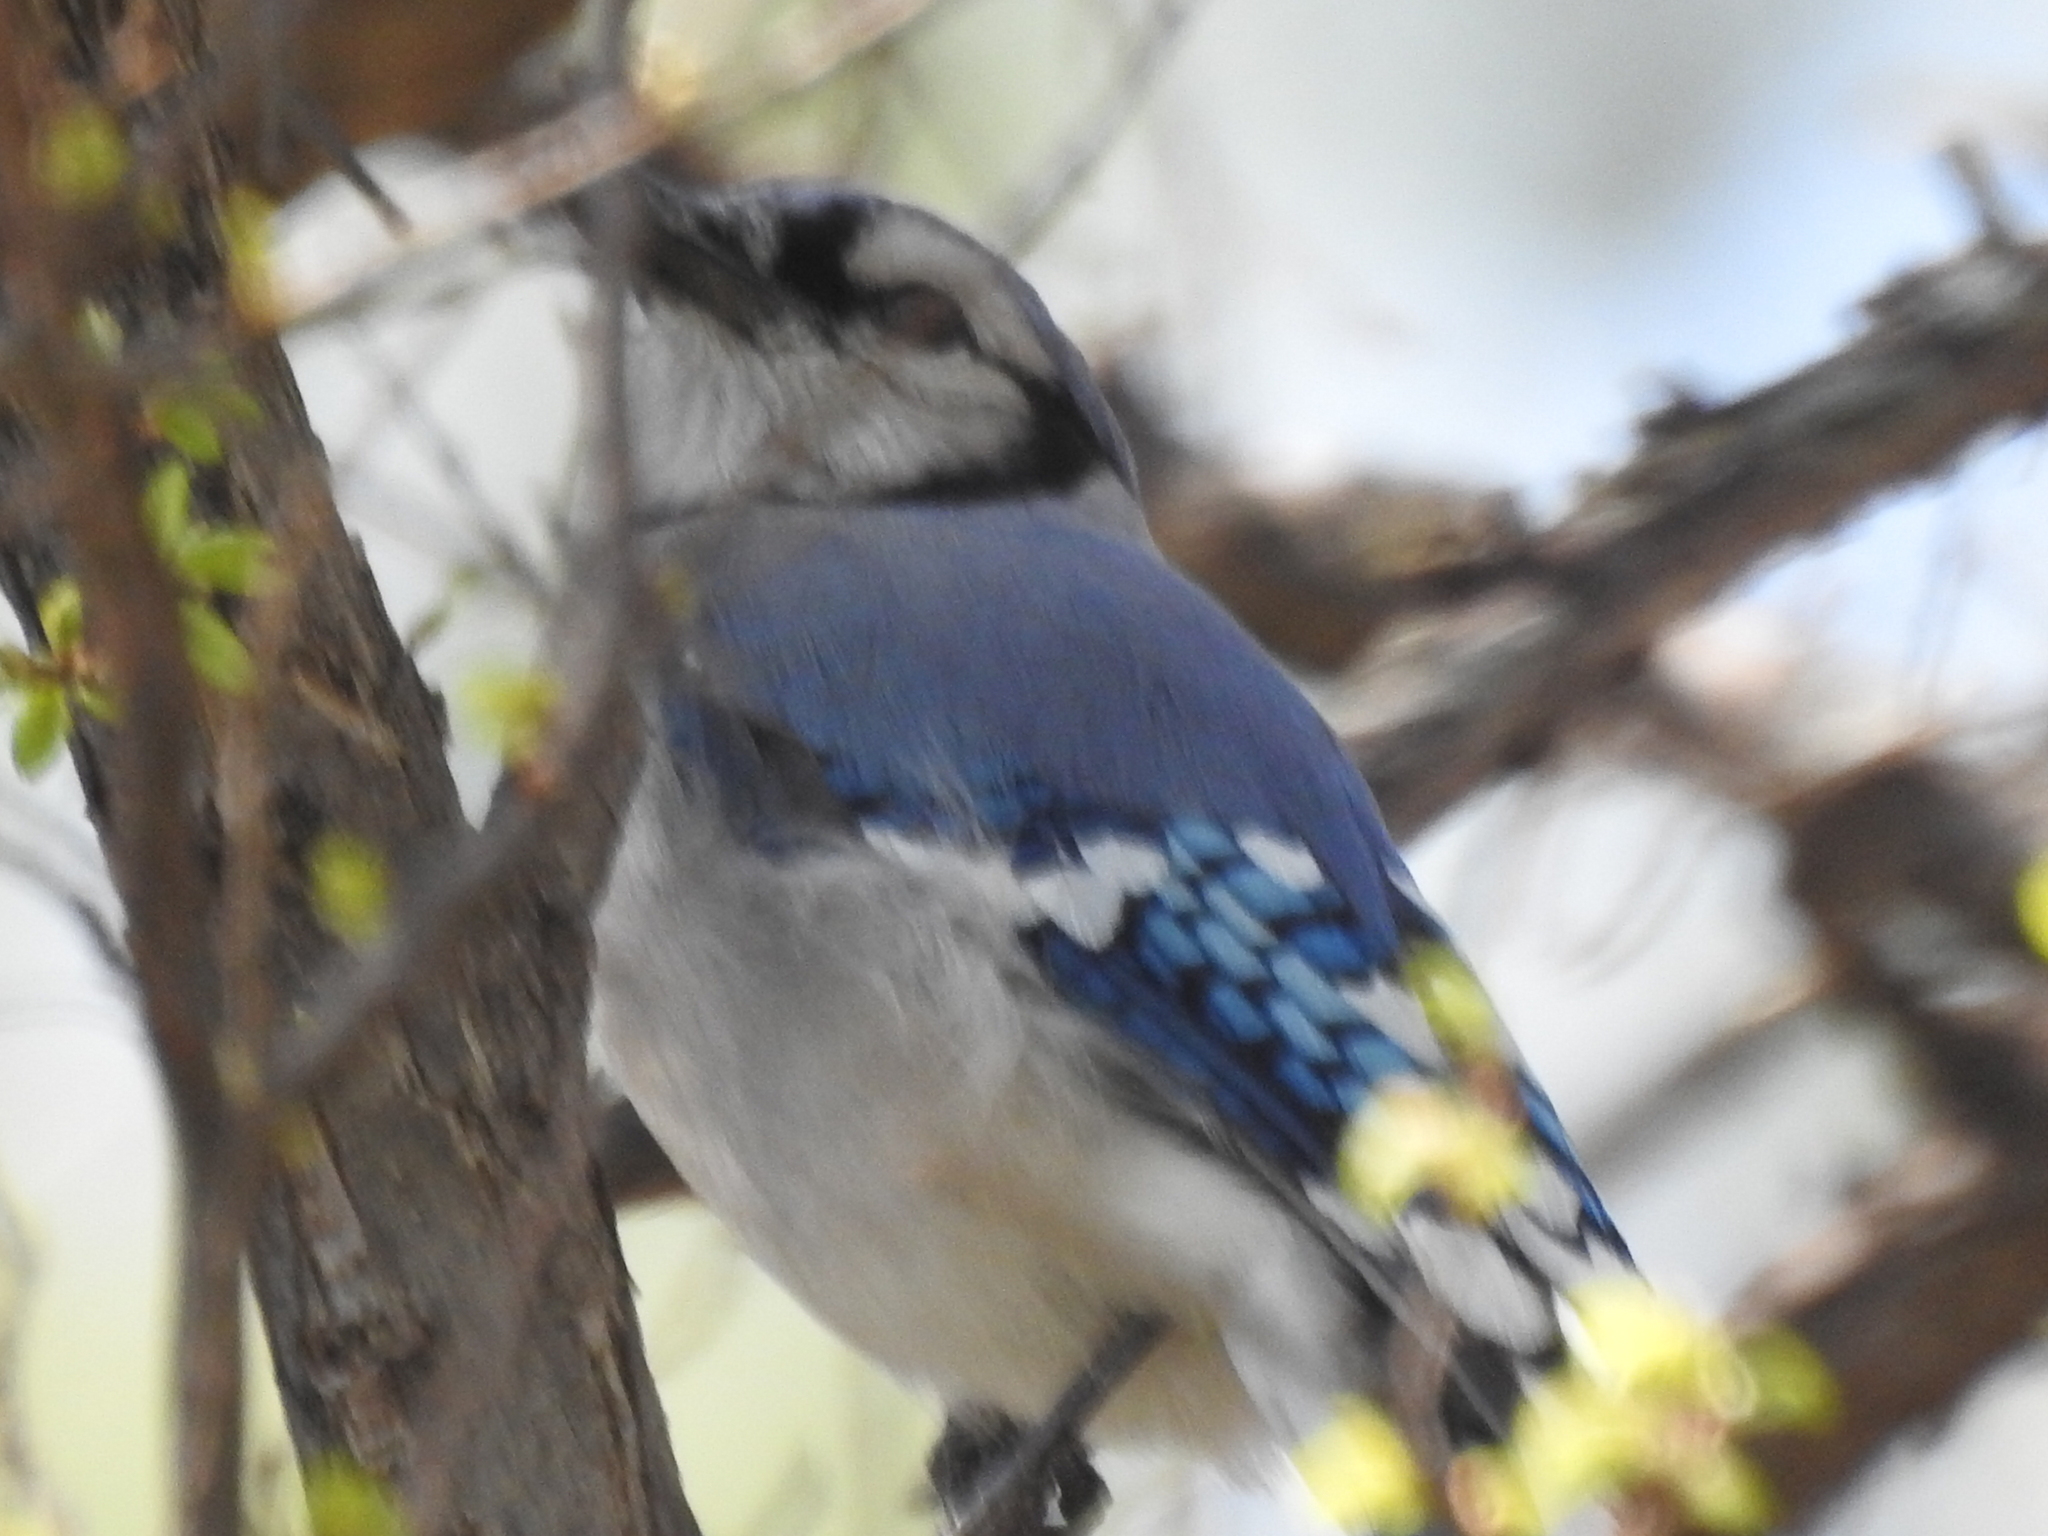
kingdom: Animalia
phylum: Chordata
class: Aves
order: Passeriformes
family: Corvidae
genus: Cyanocitta
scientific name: Cyanocitta cristata
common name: Blue jay
